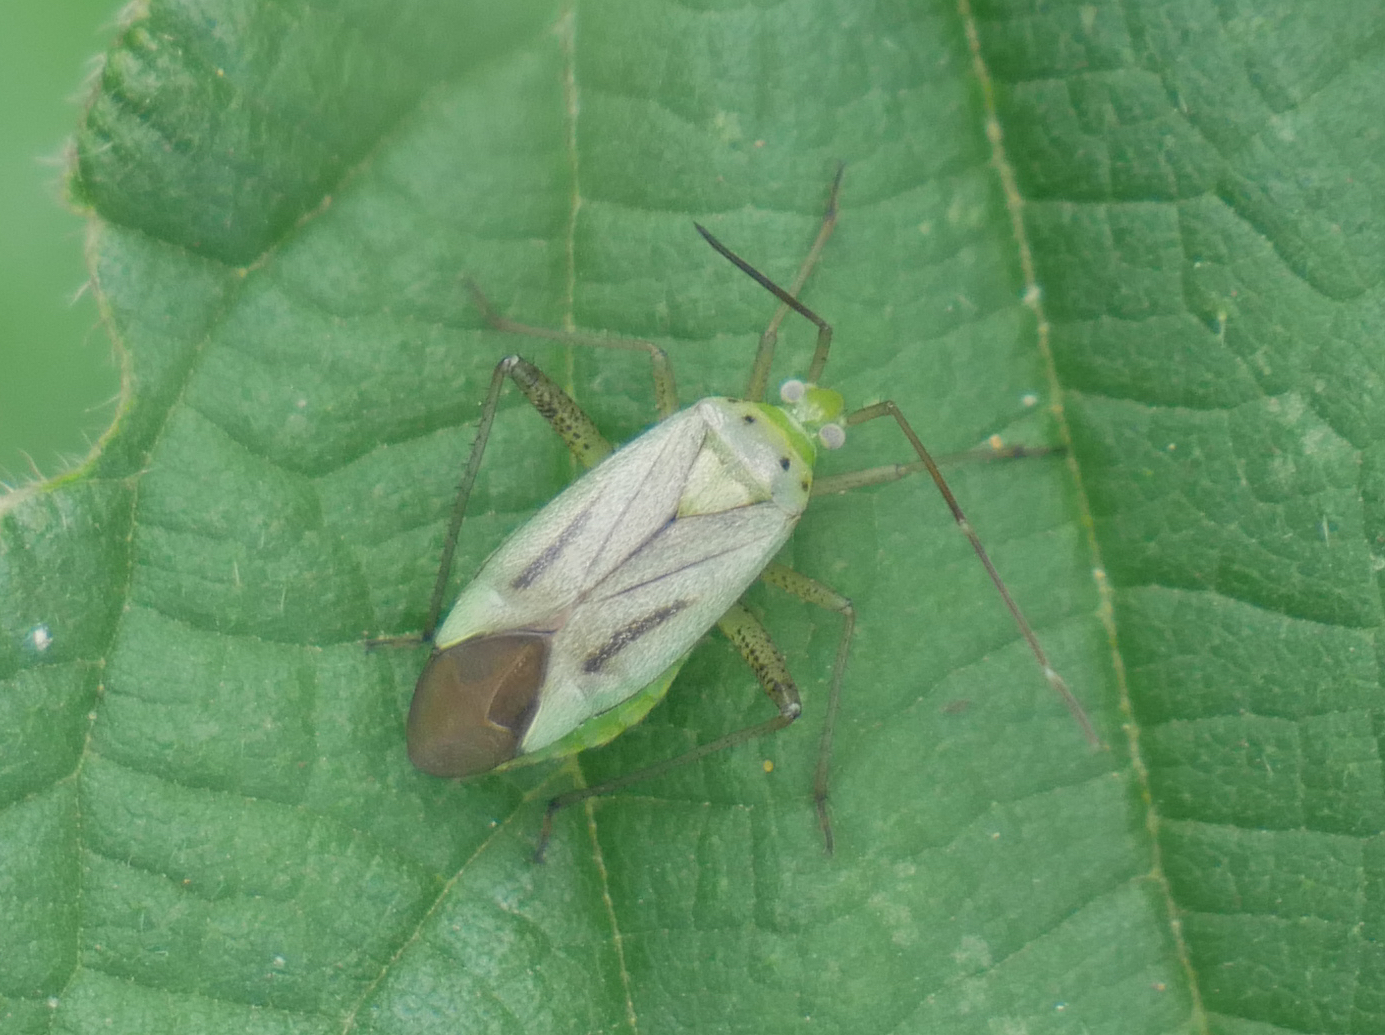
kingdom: Animalia
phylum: Arthropoda
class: Insecta
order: Hemiptera
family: Miridae
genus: Adelphocoris
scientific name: Adelphocoris quadripunctatus
